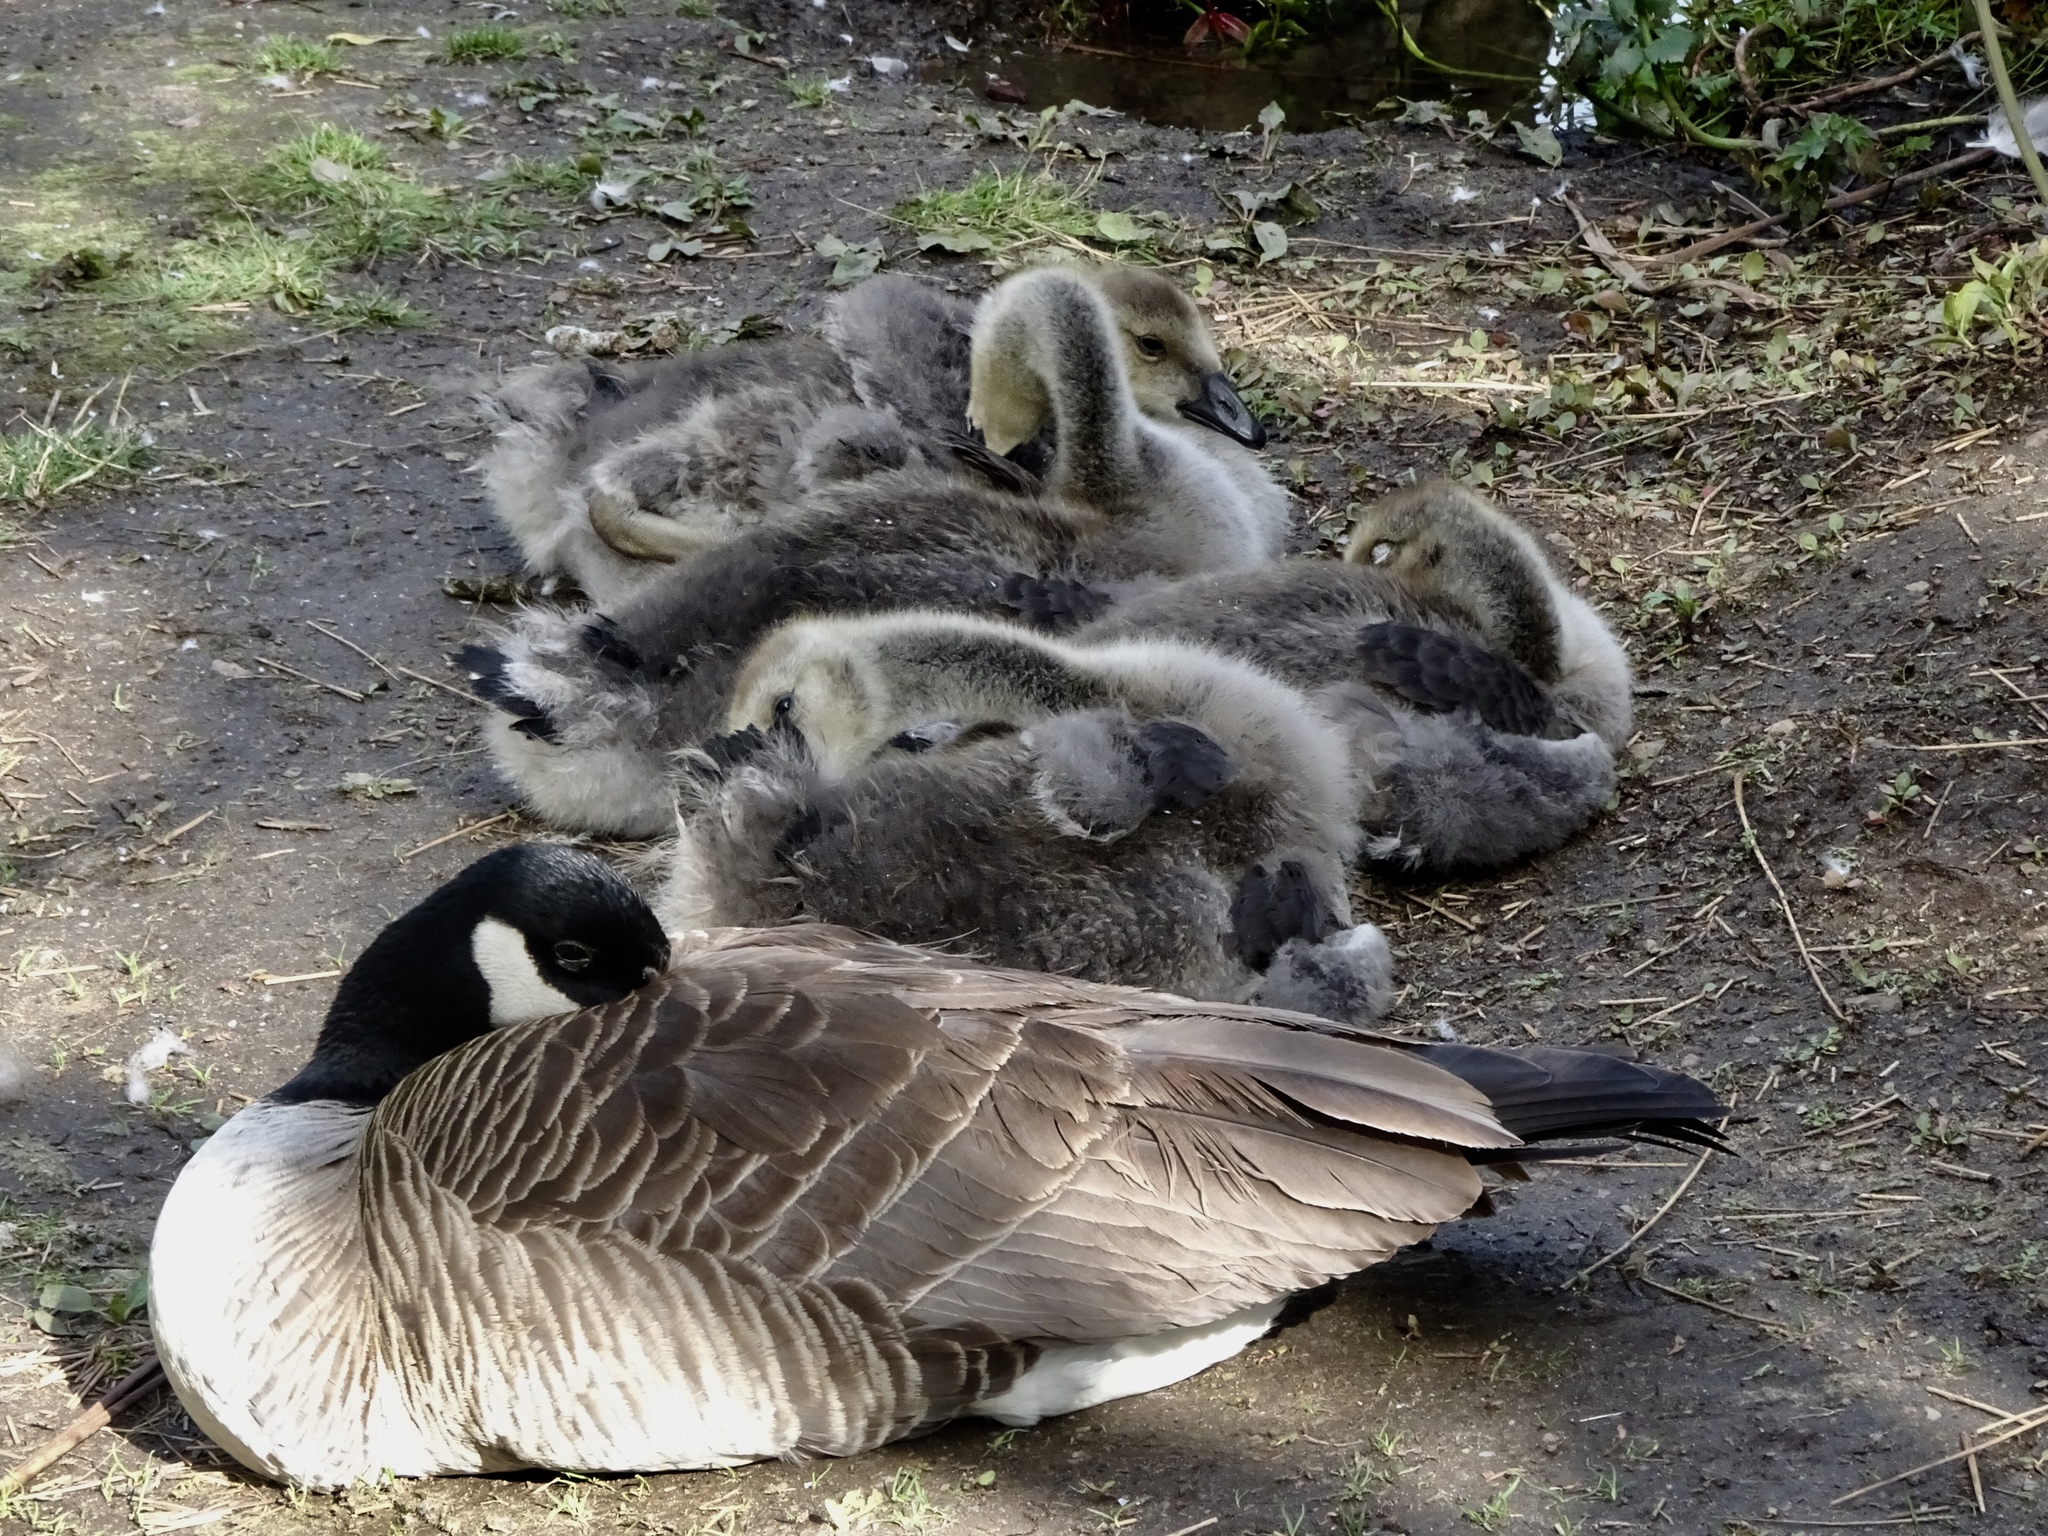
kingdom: Animalia
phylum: Chordata
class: Aves
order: Anseriformes
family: Anatidae
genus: Branta
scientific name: Branta canadensis
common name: Canada goose
